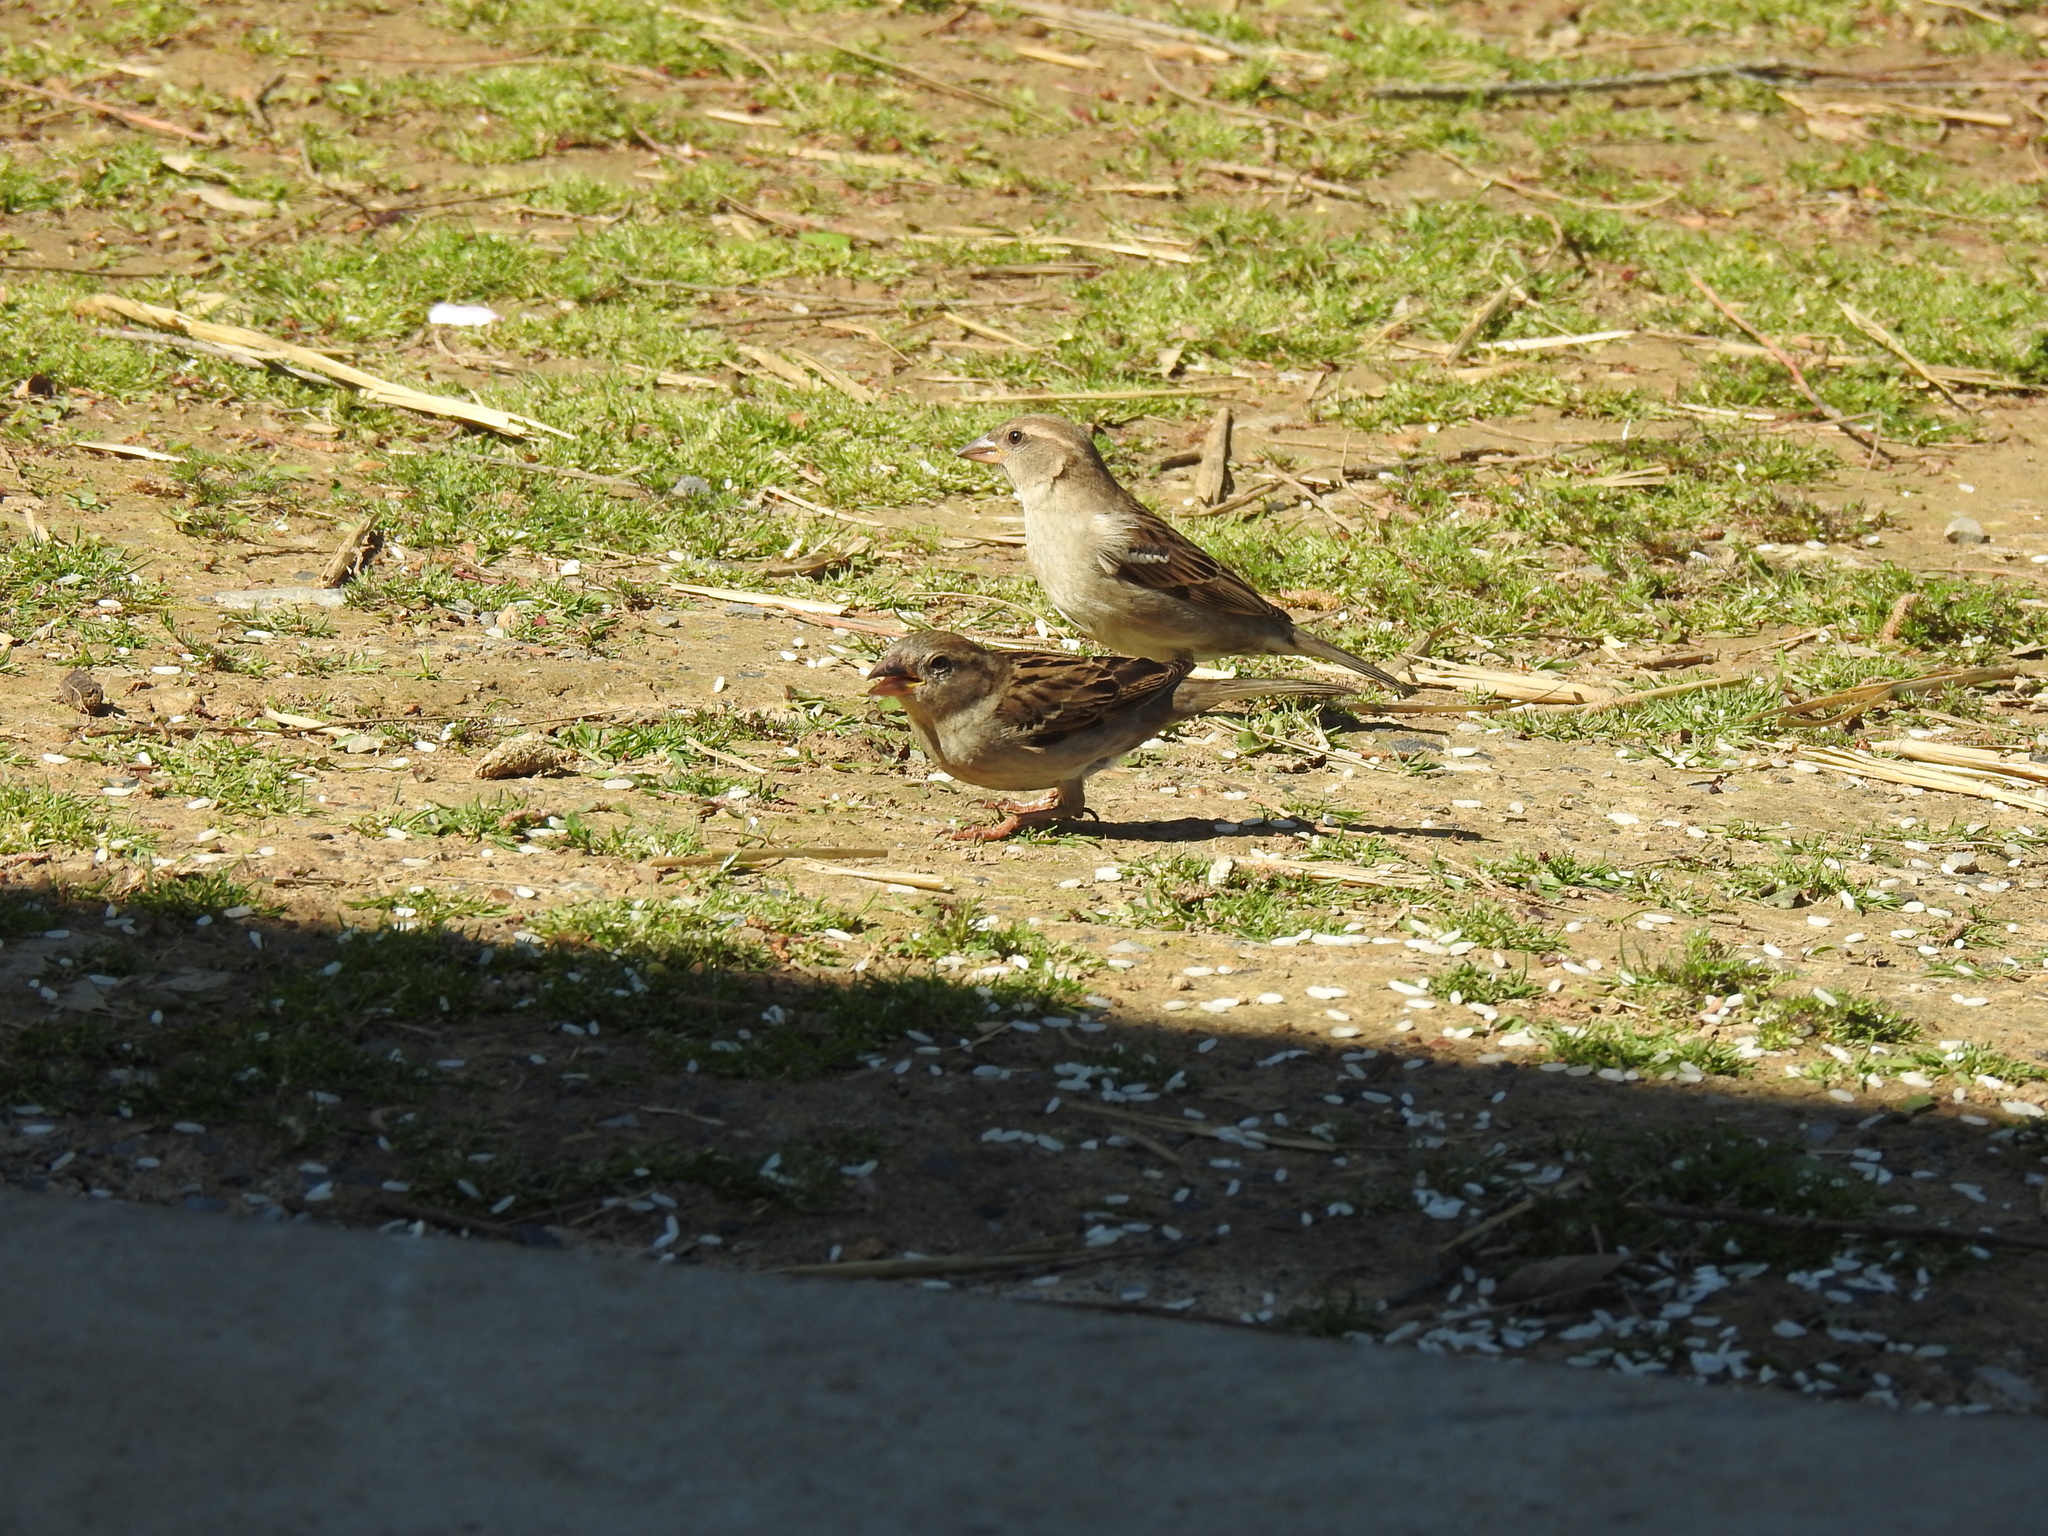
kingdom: Animalia
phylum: Chordata
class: Aves
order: Passeriformes
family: Passeridae
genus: Passer
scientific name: Passer domesticus
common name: House sparrow
